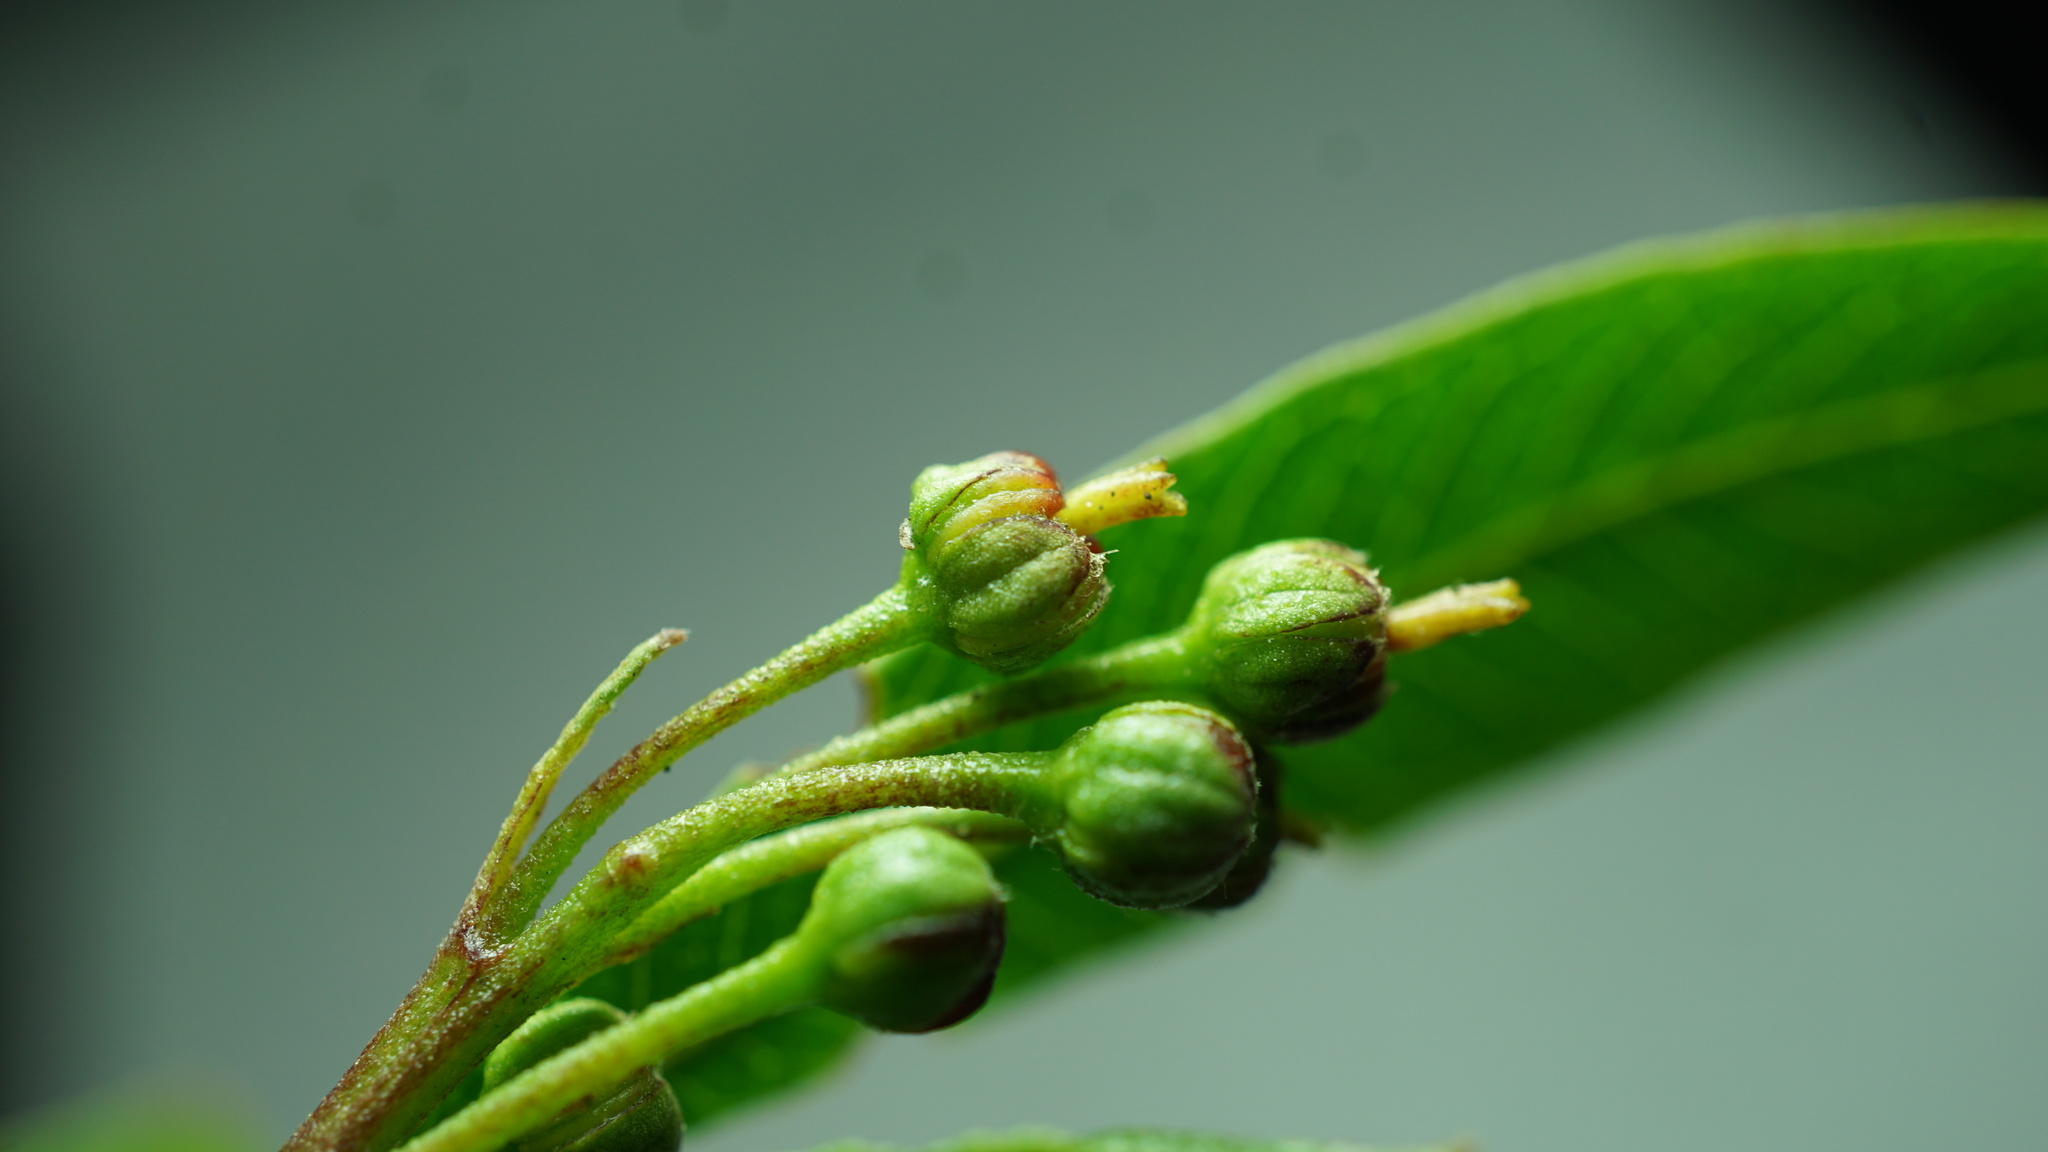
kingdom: Plantae
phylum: Tracheophyta
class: Magnoliopsida
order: Sapindales
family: Sapindaceae
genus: Dodonaea
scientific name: Dodonaea viscosa
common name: Hopbush
